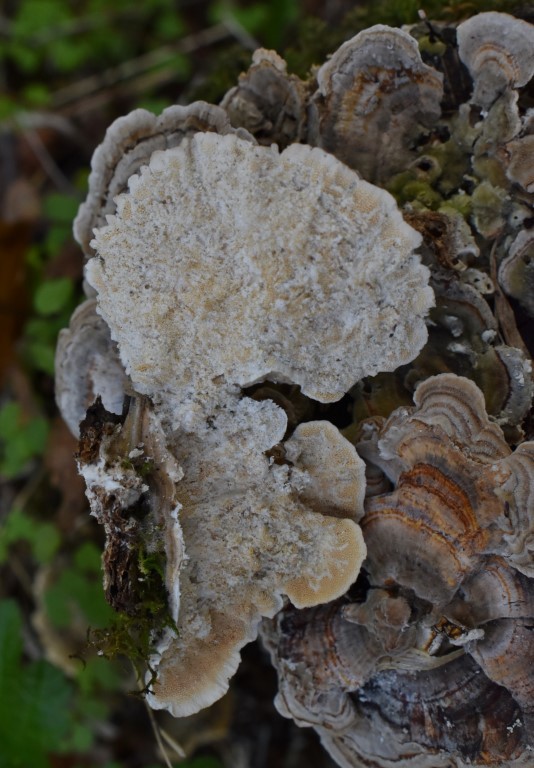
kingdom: Fungi
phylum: Basidiomycota
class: Agaricomycetes
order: Polyporales
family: Polyporaceae
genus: Trametes
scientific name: Trametes versicolor
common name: Turkeytail
